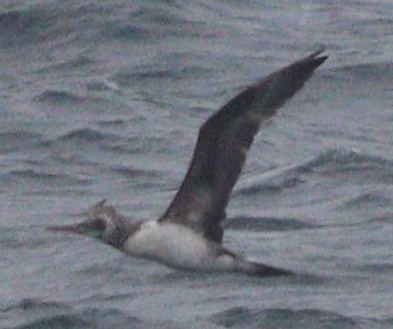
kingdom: Animalia
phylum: Chordata
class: Aves
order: Suliformes
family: Sulidae
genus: Morus
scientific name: Morus bassanus
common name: Northern gannet
